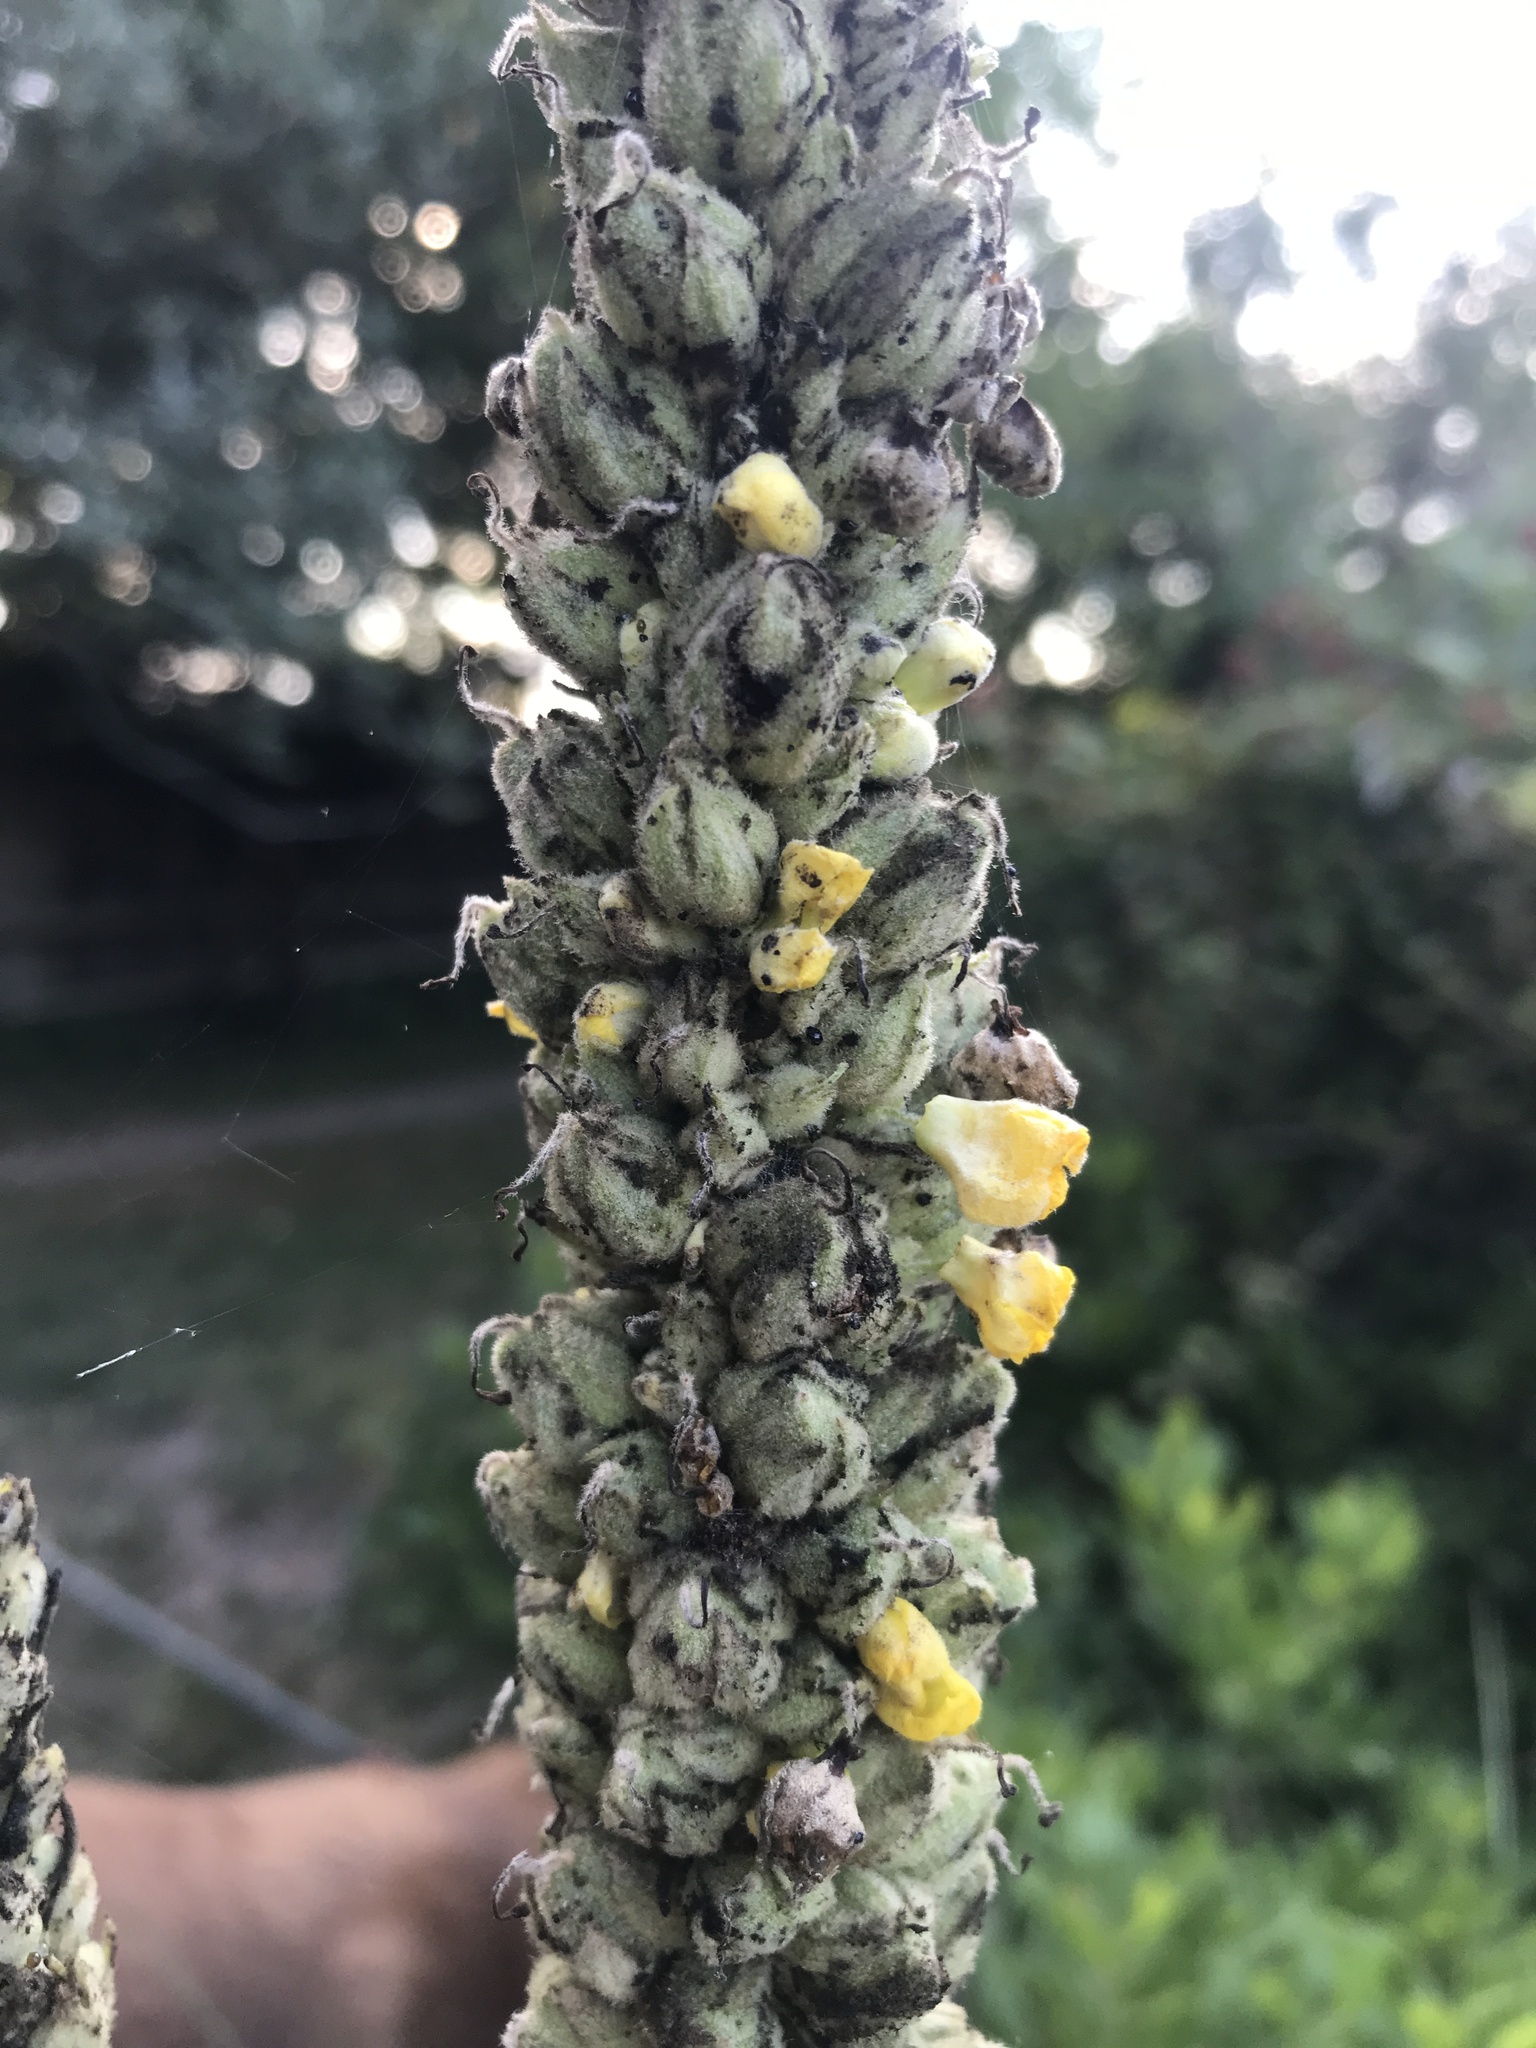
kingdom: Plantae
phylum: Tracheophyta
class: Magnoliopsida
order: Lamiales
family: Scrophulariaceae
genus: Verbascum
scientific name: Verbascum thapsus
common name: Common mullein
